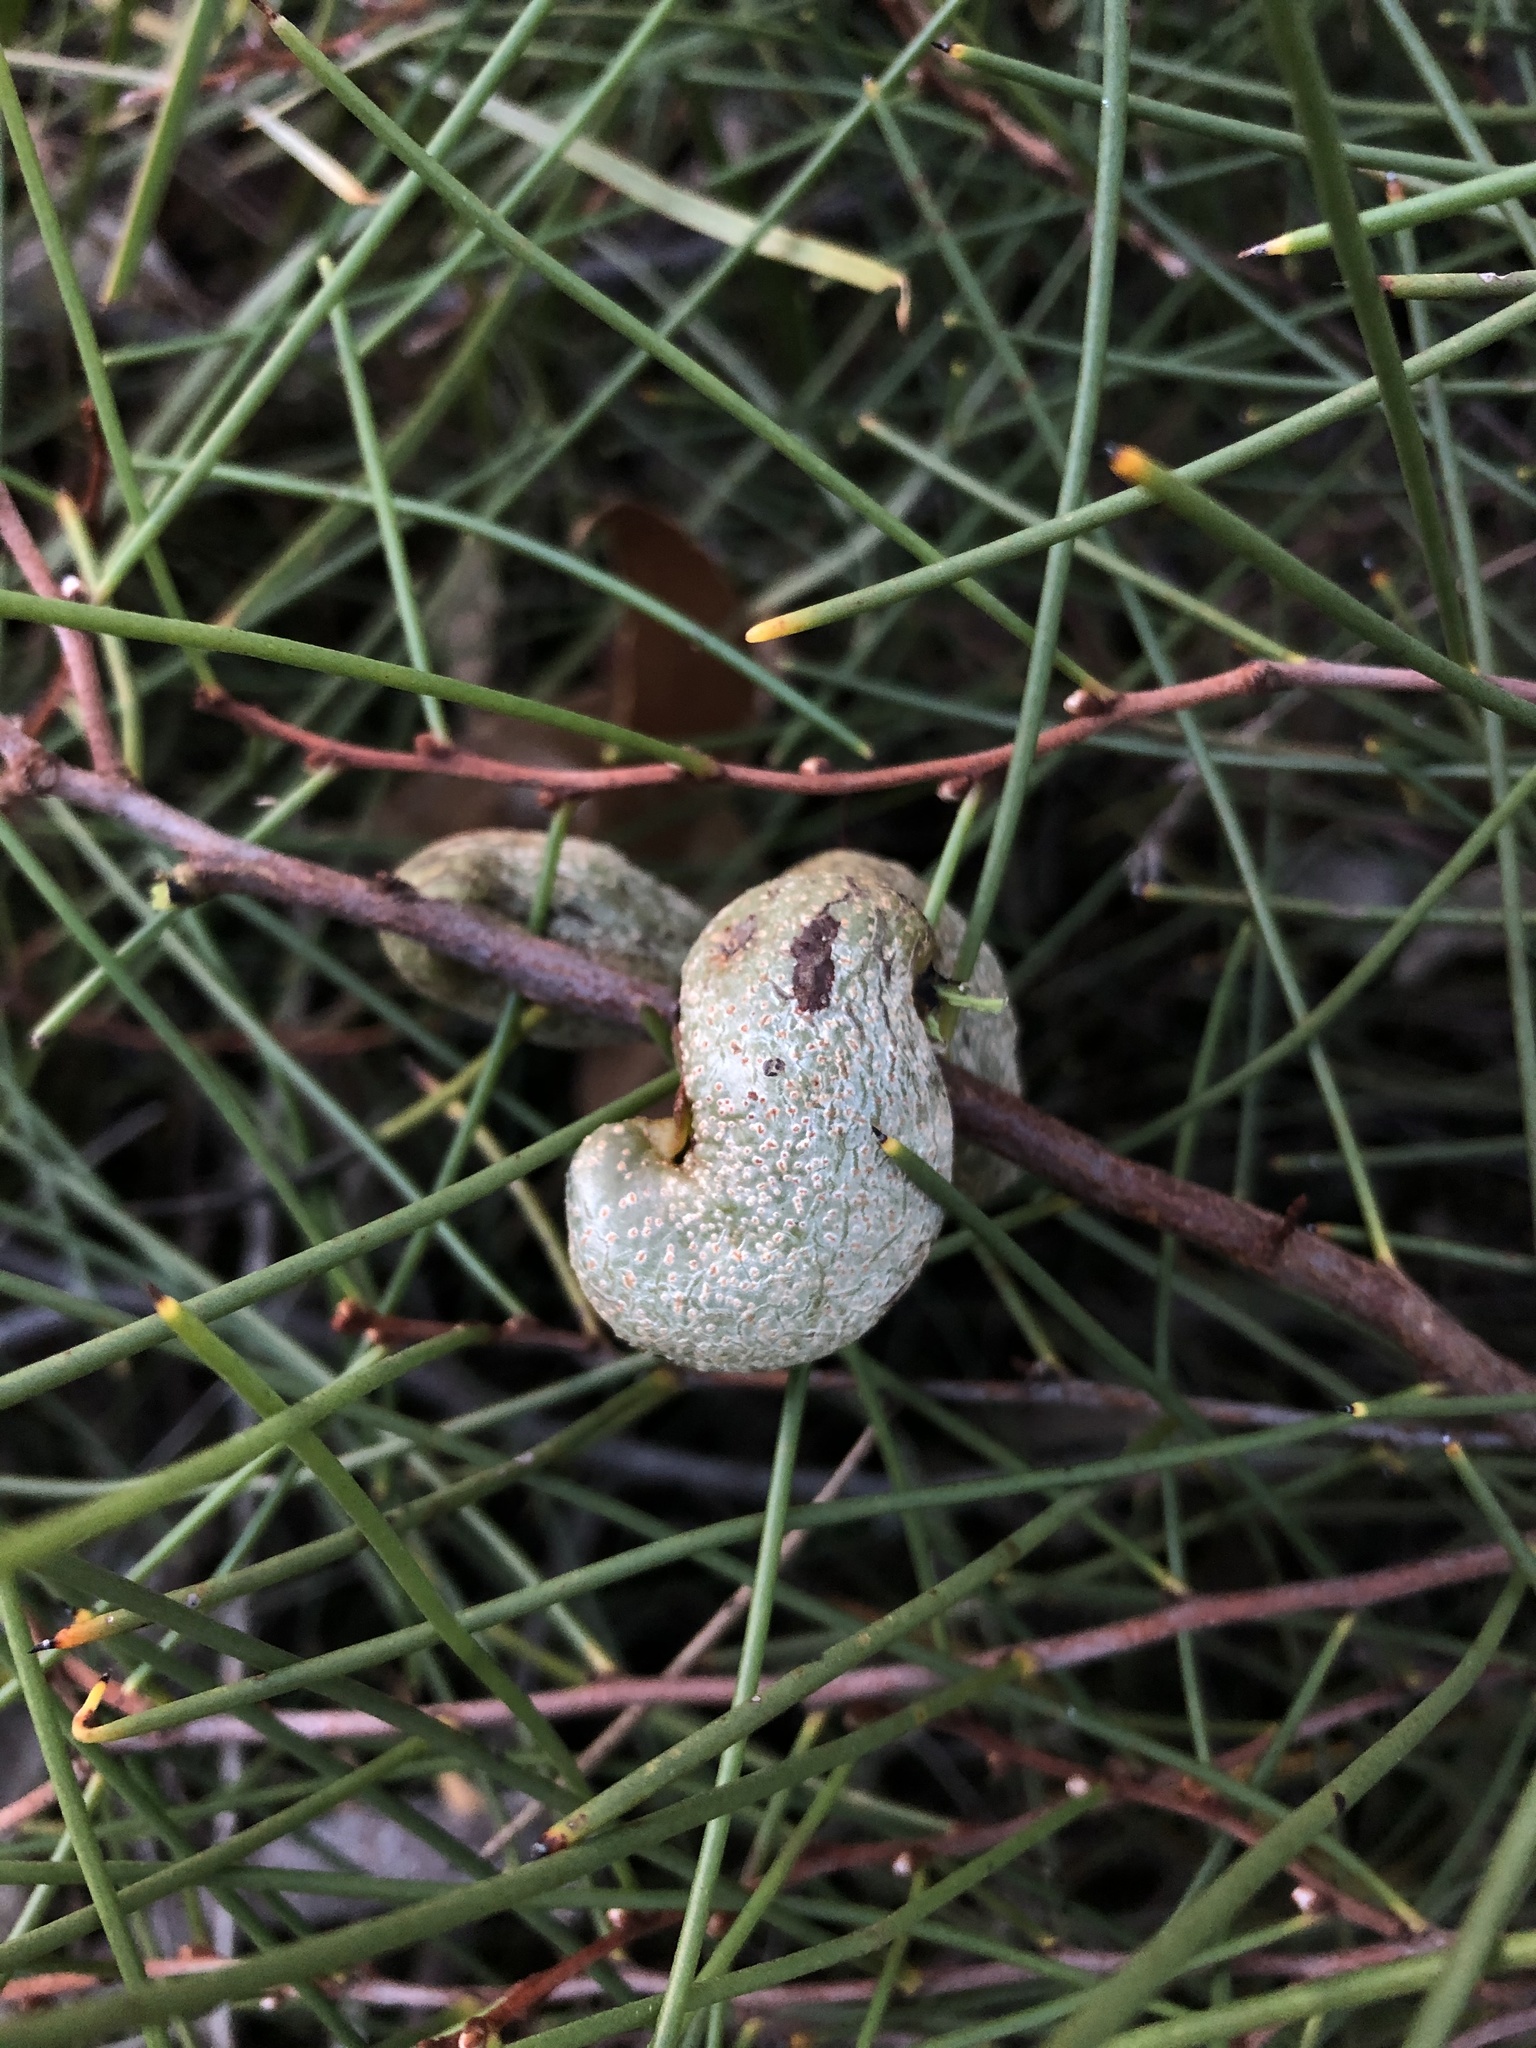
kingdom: Plantae
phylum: Tracheophyta
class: Magnoliopsida
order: Proteales
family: Proteaceae
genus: Hakea
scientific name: Hakea rostrata
